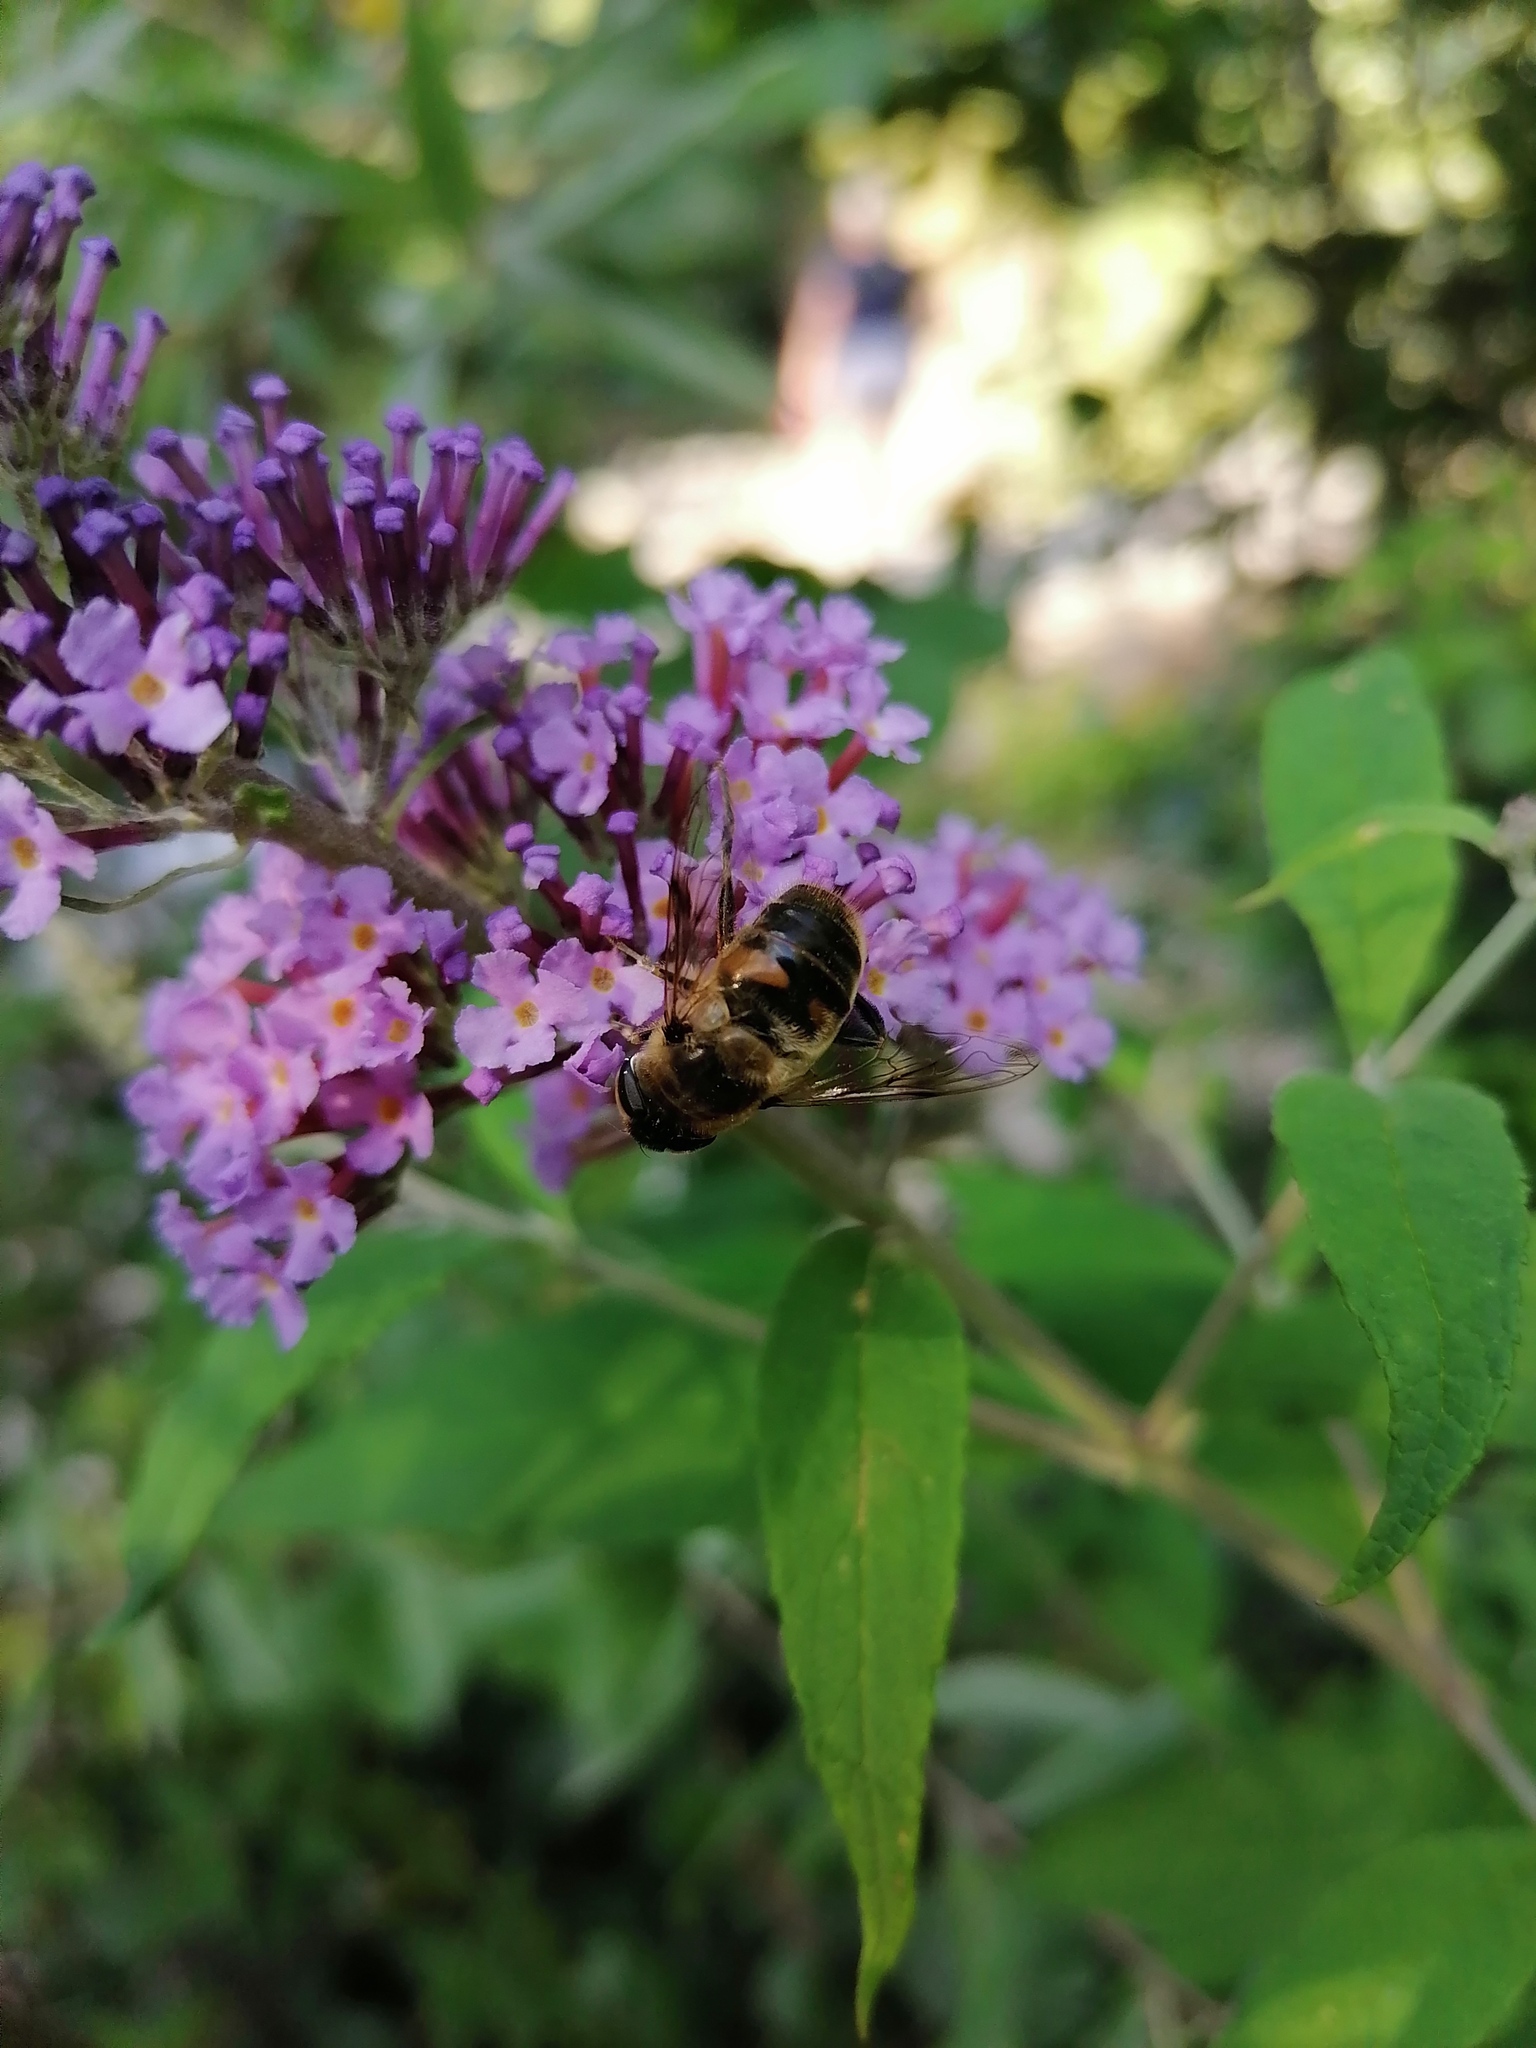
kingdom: Plantae
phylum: Tracheophyta
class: Magnoliopsida
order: Lamiales
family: Scrophulariaceae
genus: Buddleja
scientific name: Buddleja davidii
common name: Butterfly-bush
